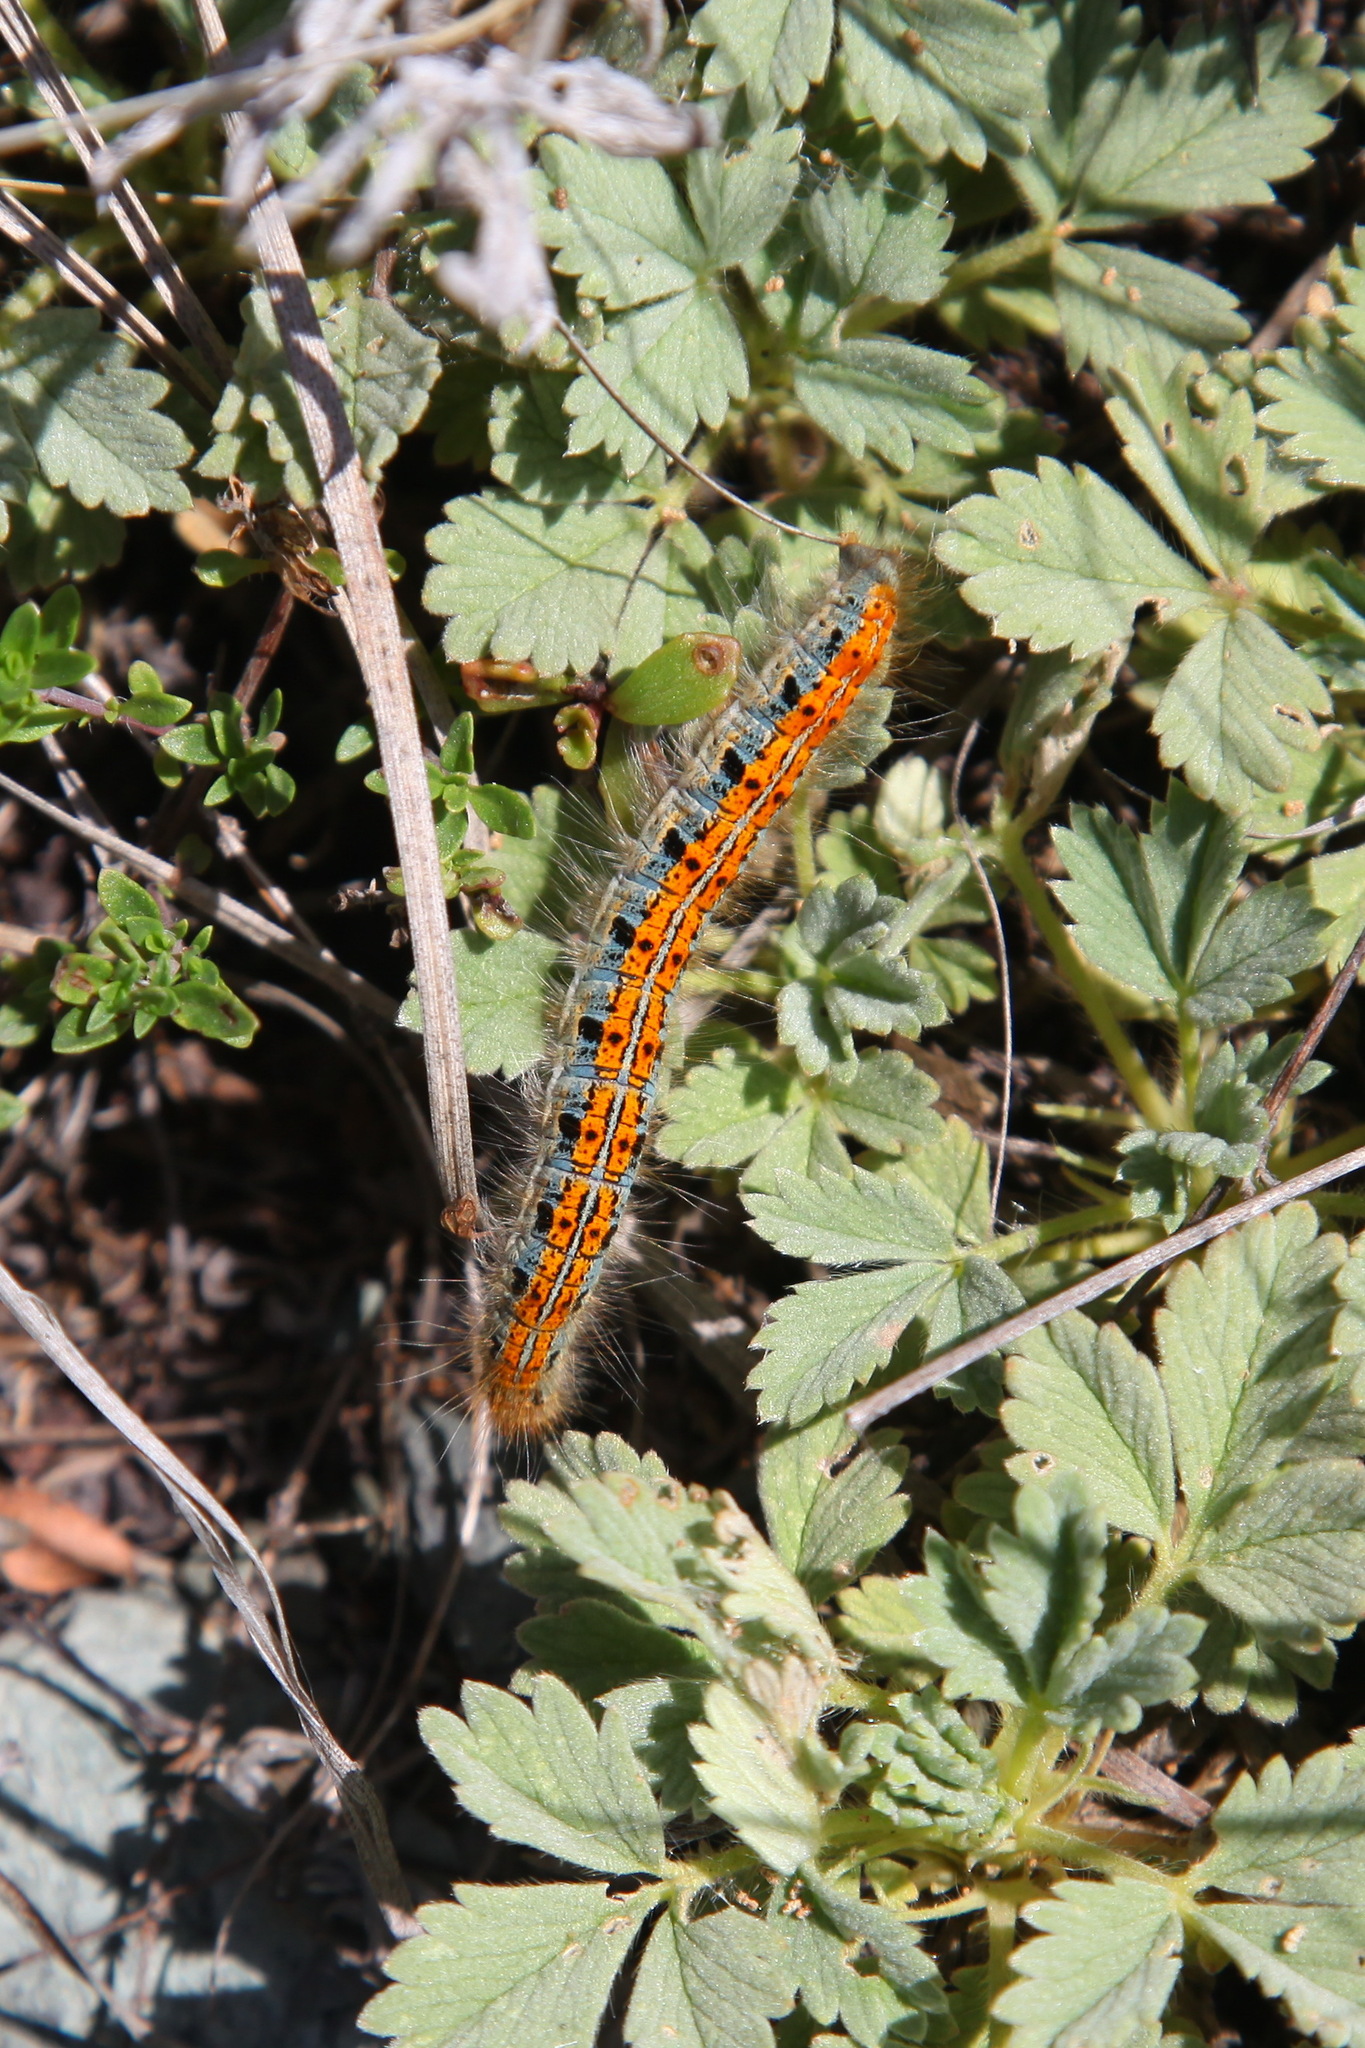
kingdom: Animalia
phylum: Arthropoda
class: Insecta
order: Lepidoptera
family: Lasiocampidae
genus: Malacosoma
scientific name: Malacosoma castrense
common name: Ground lackey
